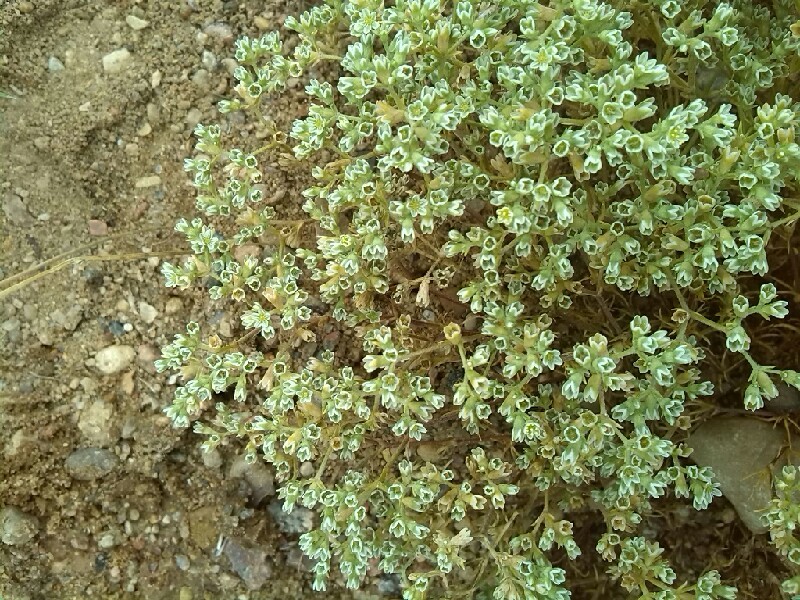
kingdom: Plantae
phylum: Tracheophyta
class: Magnoliopsida
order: Caryophyllales
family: Caryophyllaceae
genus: Scleranthus
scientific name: Scleranthus perennis
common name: Perennial knawel
